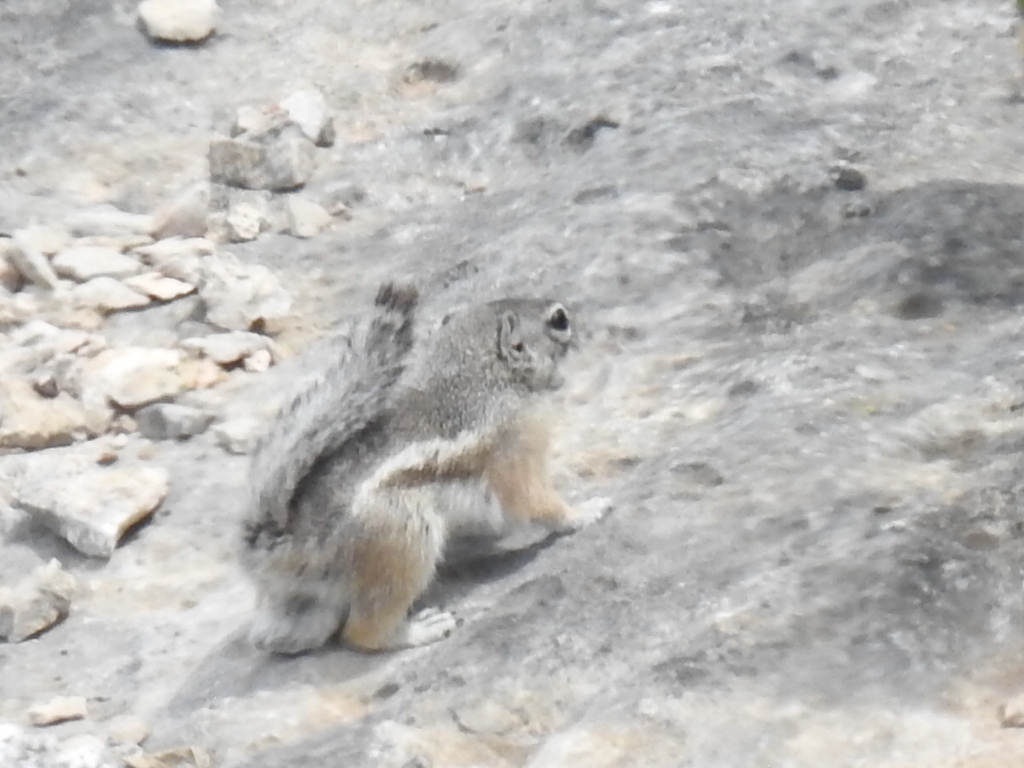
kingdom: Animalia
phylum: Chordata
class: Mammalia
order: Rodentia
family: Sciuridae
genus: Ammospermophilus
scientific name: Ammospermophilus interpres
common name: Texas antelope squirrel
